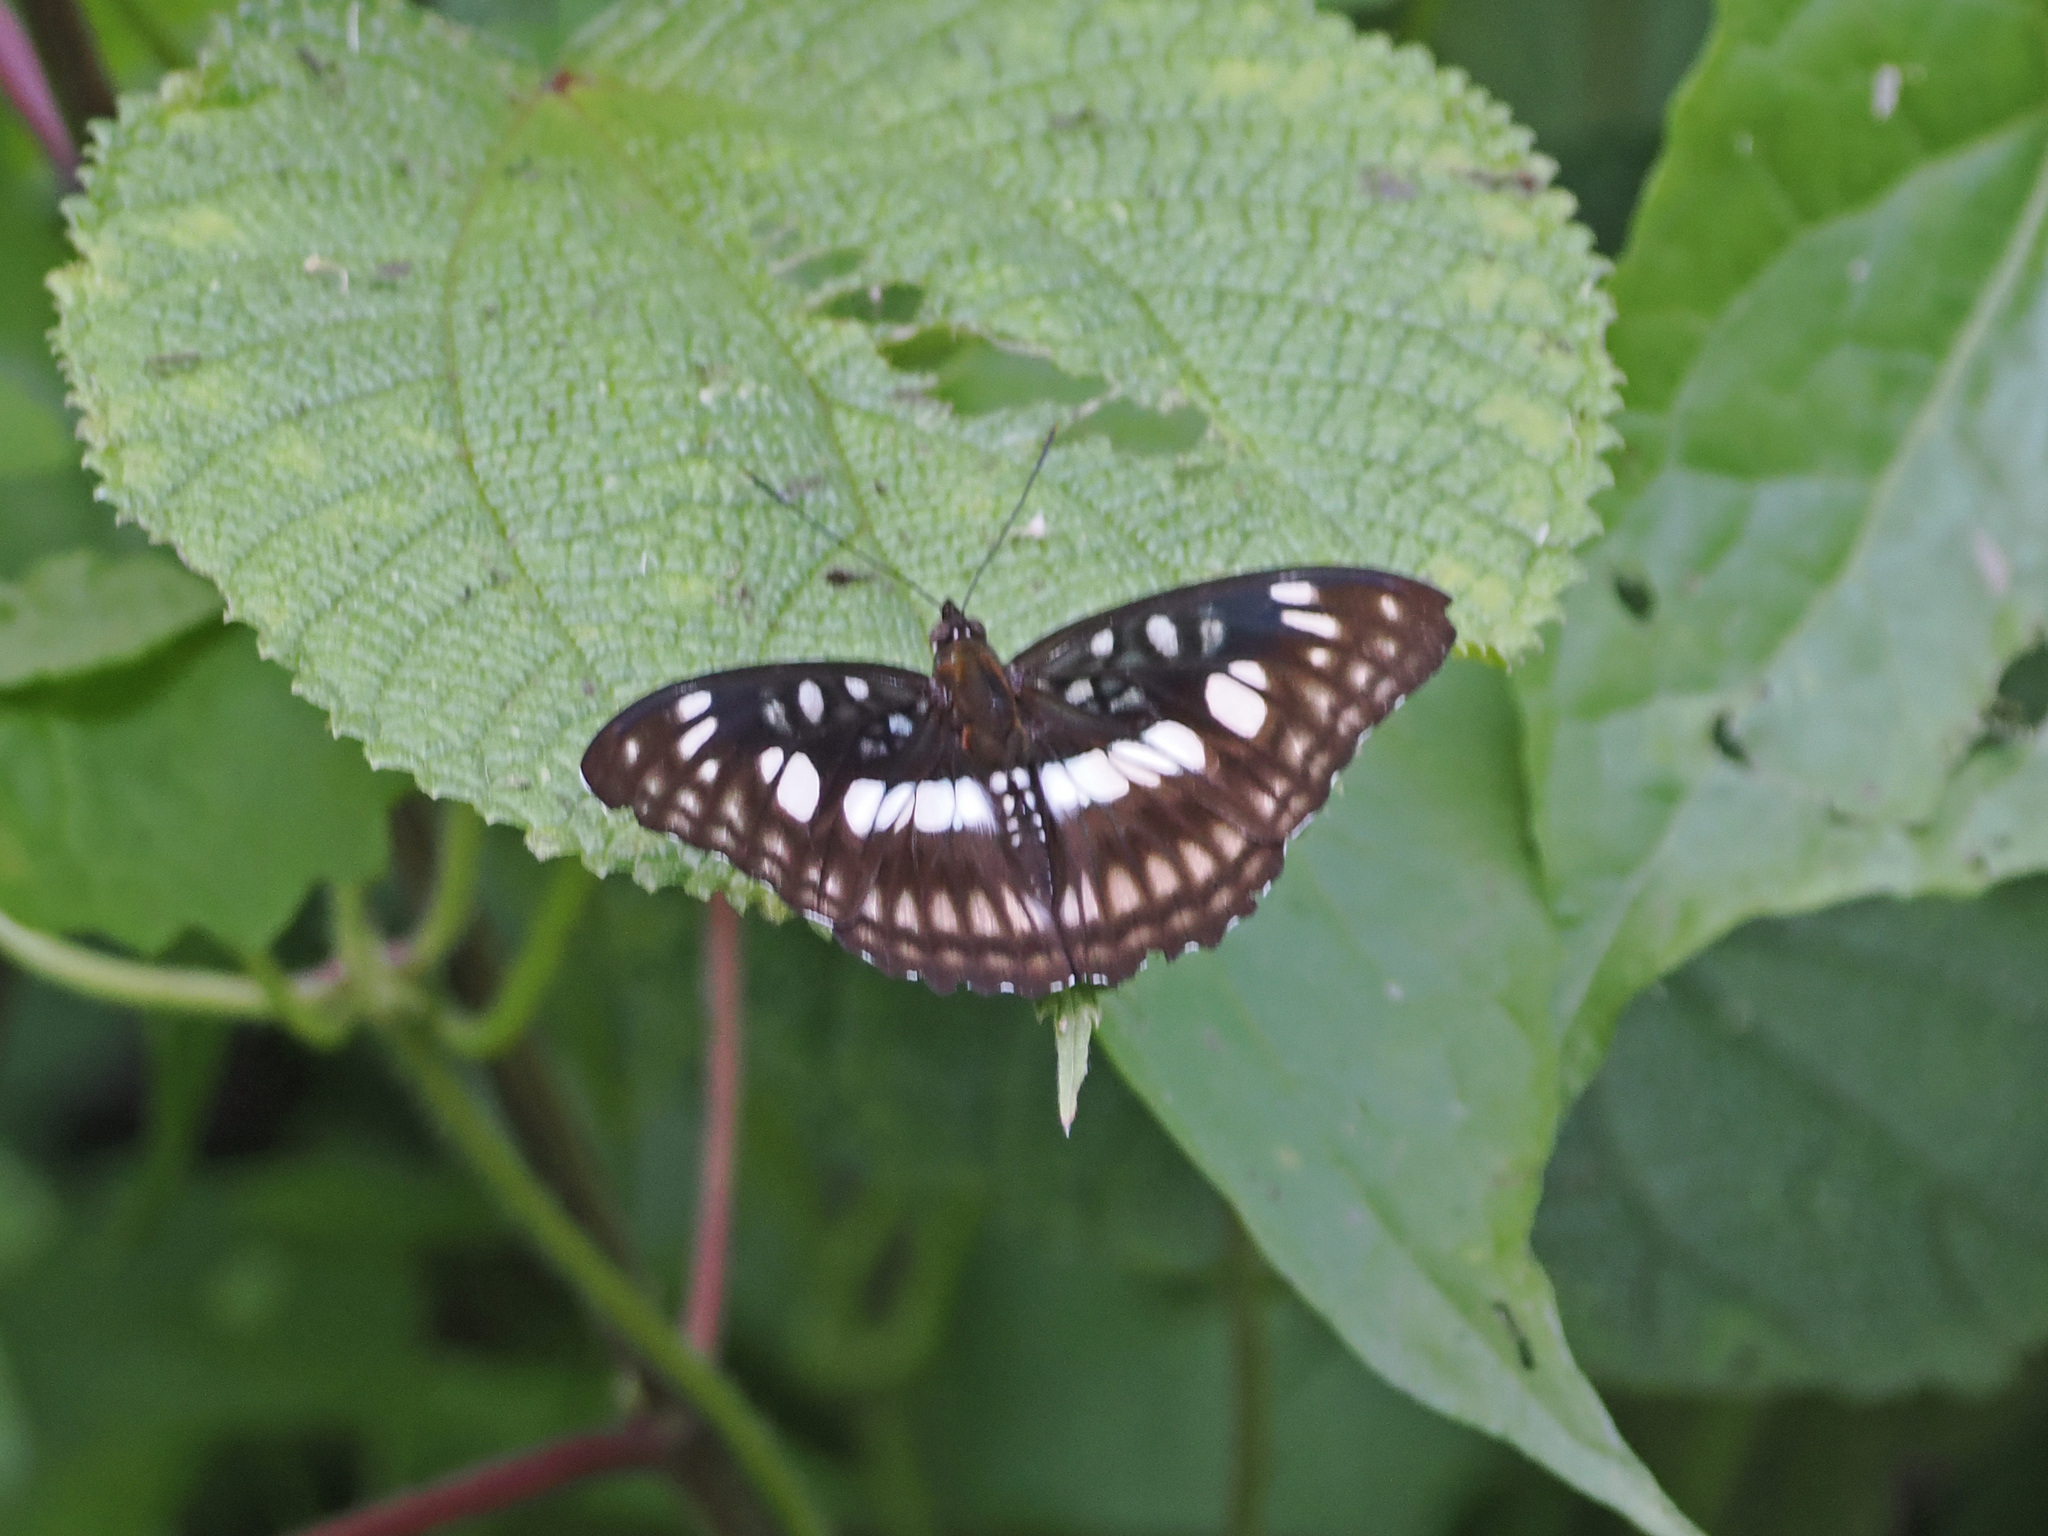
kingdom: Animalia
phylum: Arthropoda
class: Insecta
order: Lepidoptera
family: Nymphalidae
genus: Parathyma
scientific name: Parathyma ranga
